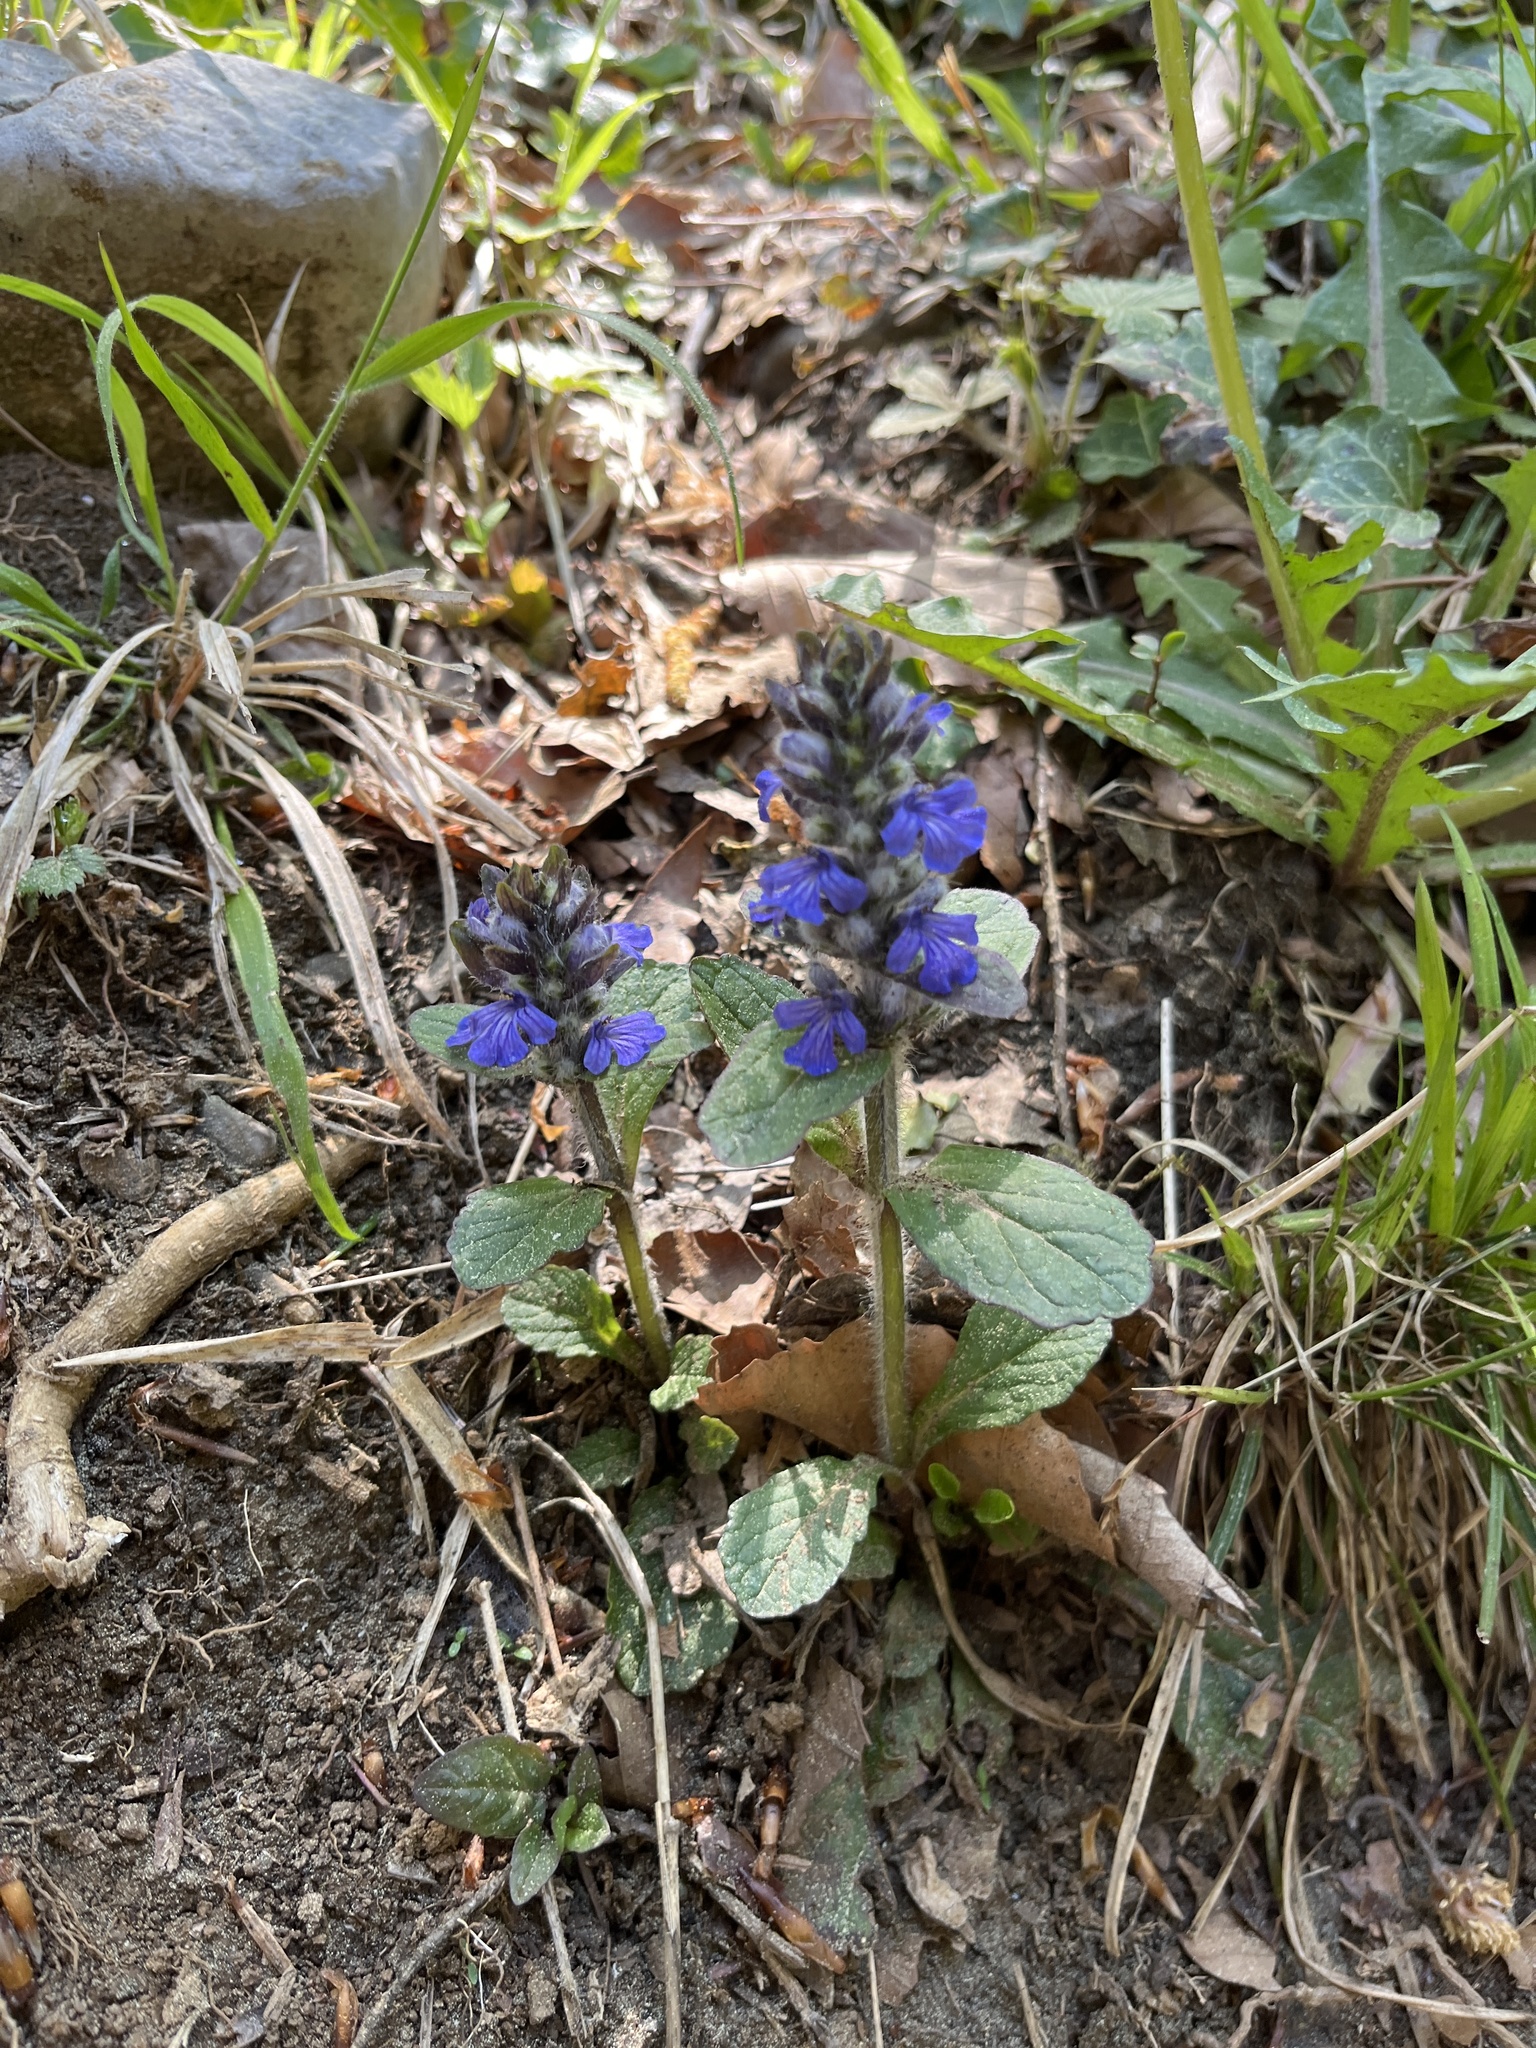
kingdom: Plantae
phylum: Tracheophyta
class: Magnoliopsida
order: Lamiales
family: Lamiaceae
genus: Ajuga
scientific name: Ajuga reptans
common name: Bugle
